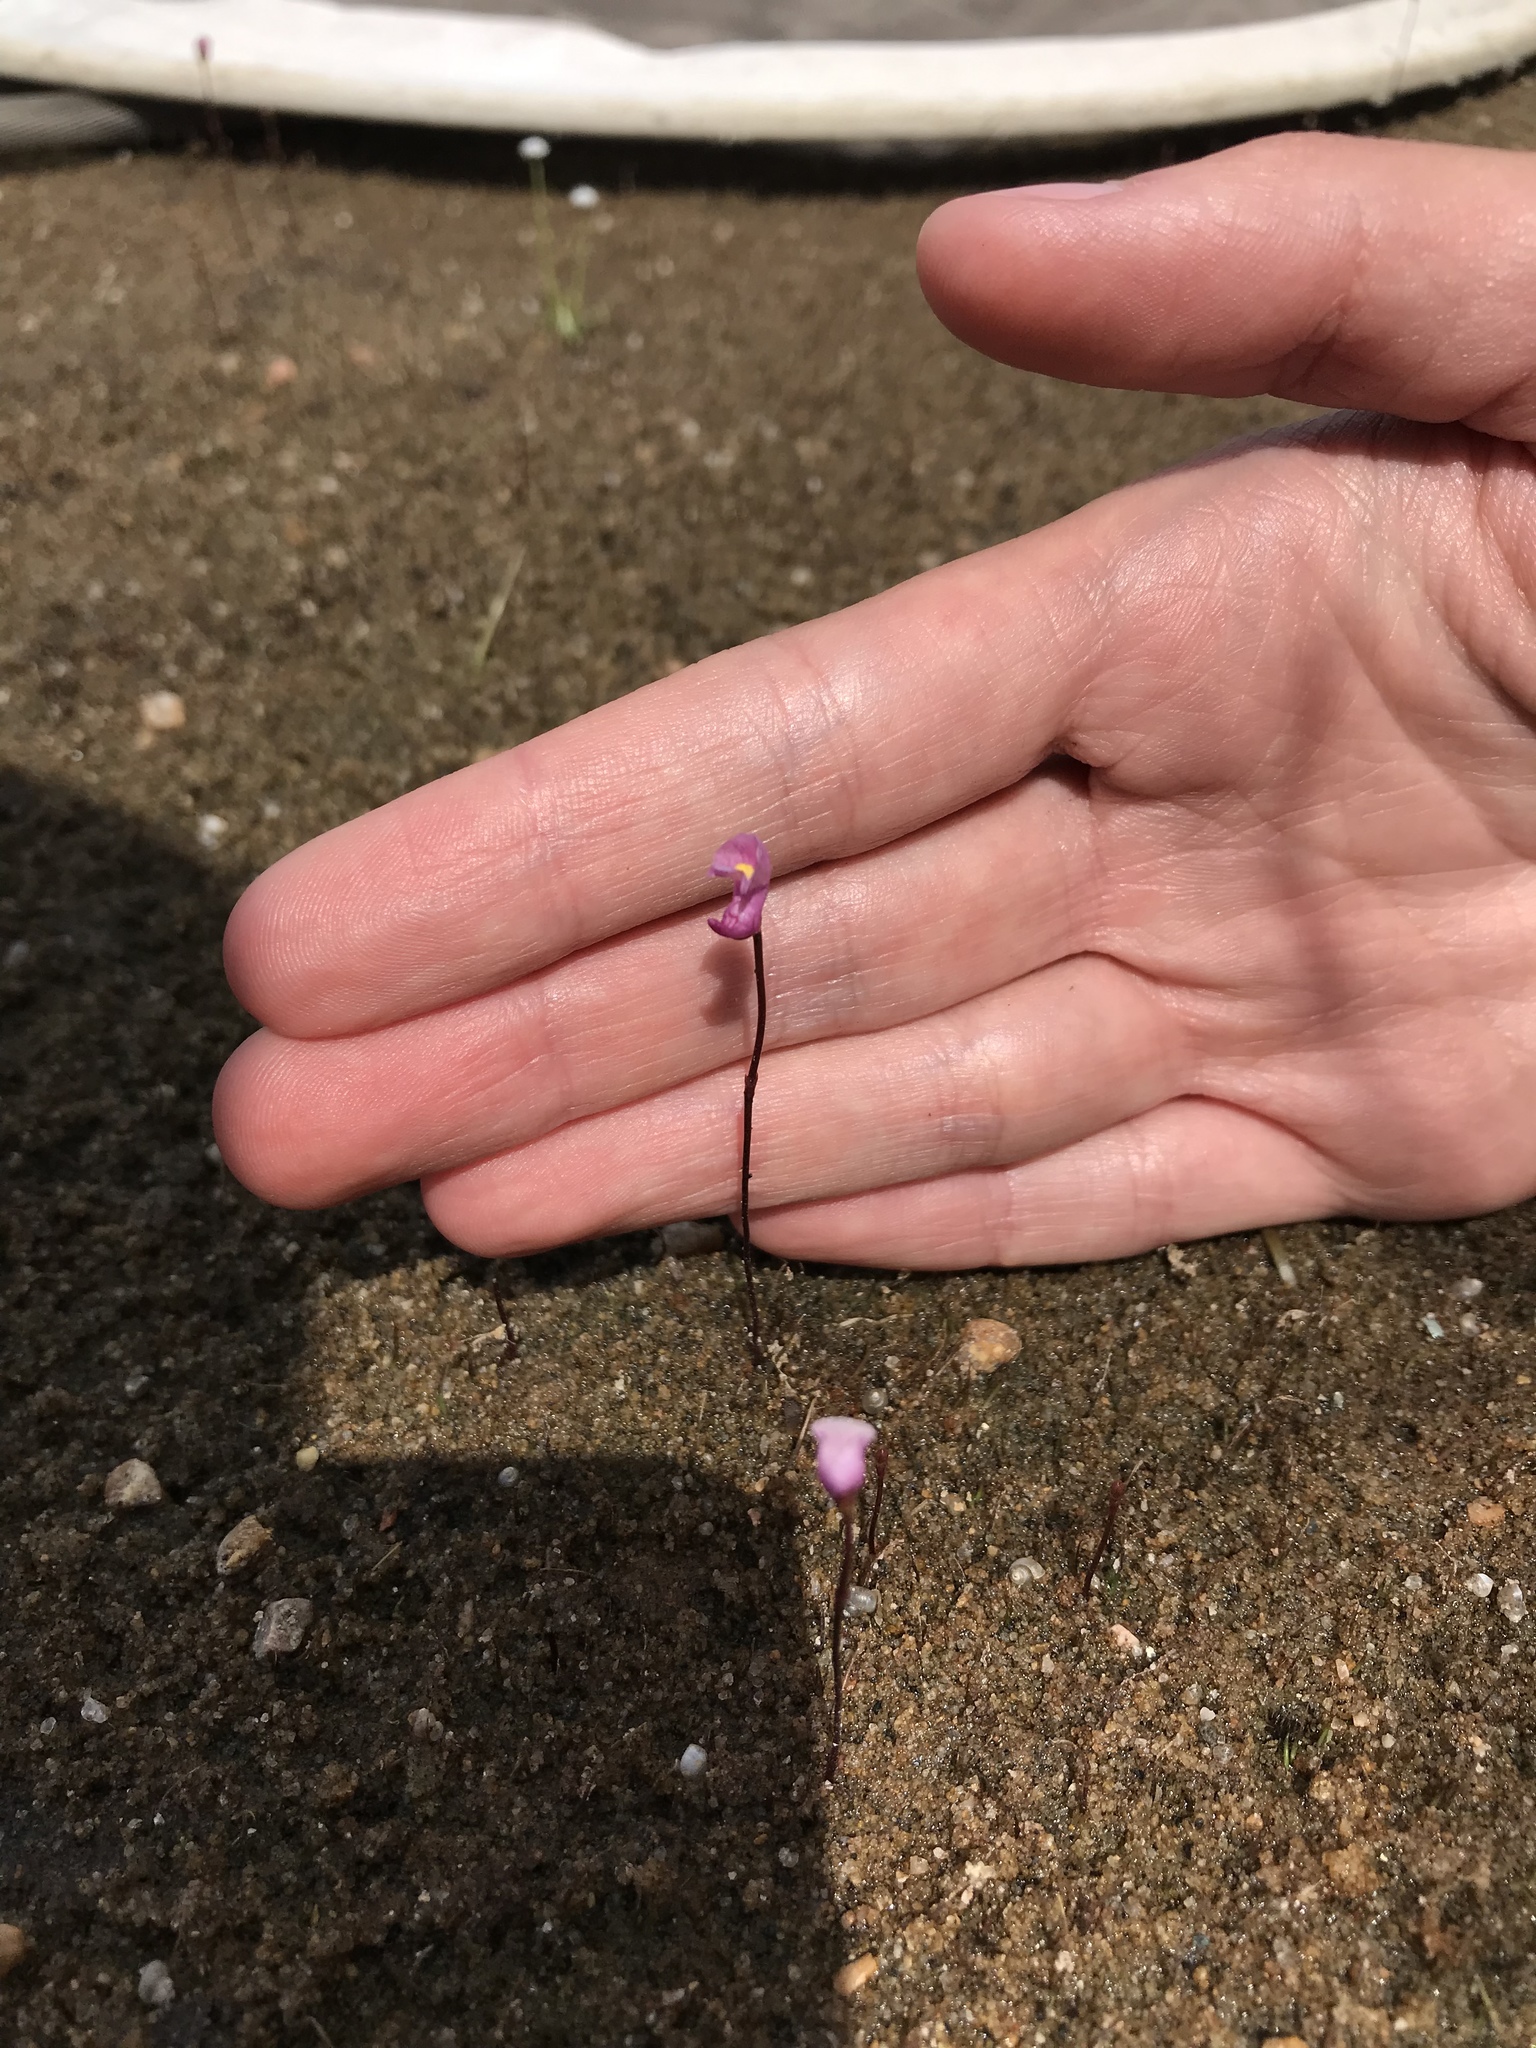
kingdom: Plantae
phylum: Tracheophyta
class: Magnoliopsida
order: Lamiales
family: Lentibulariaceae
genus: Utricularia
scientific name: Utricularia resupinata
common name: Northeastern bladderwort
